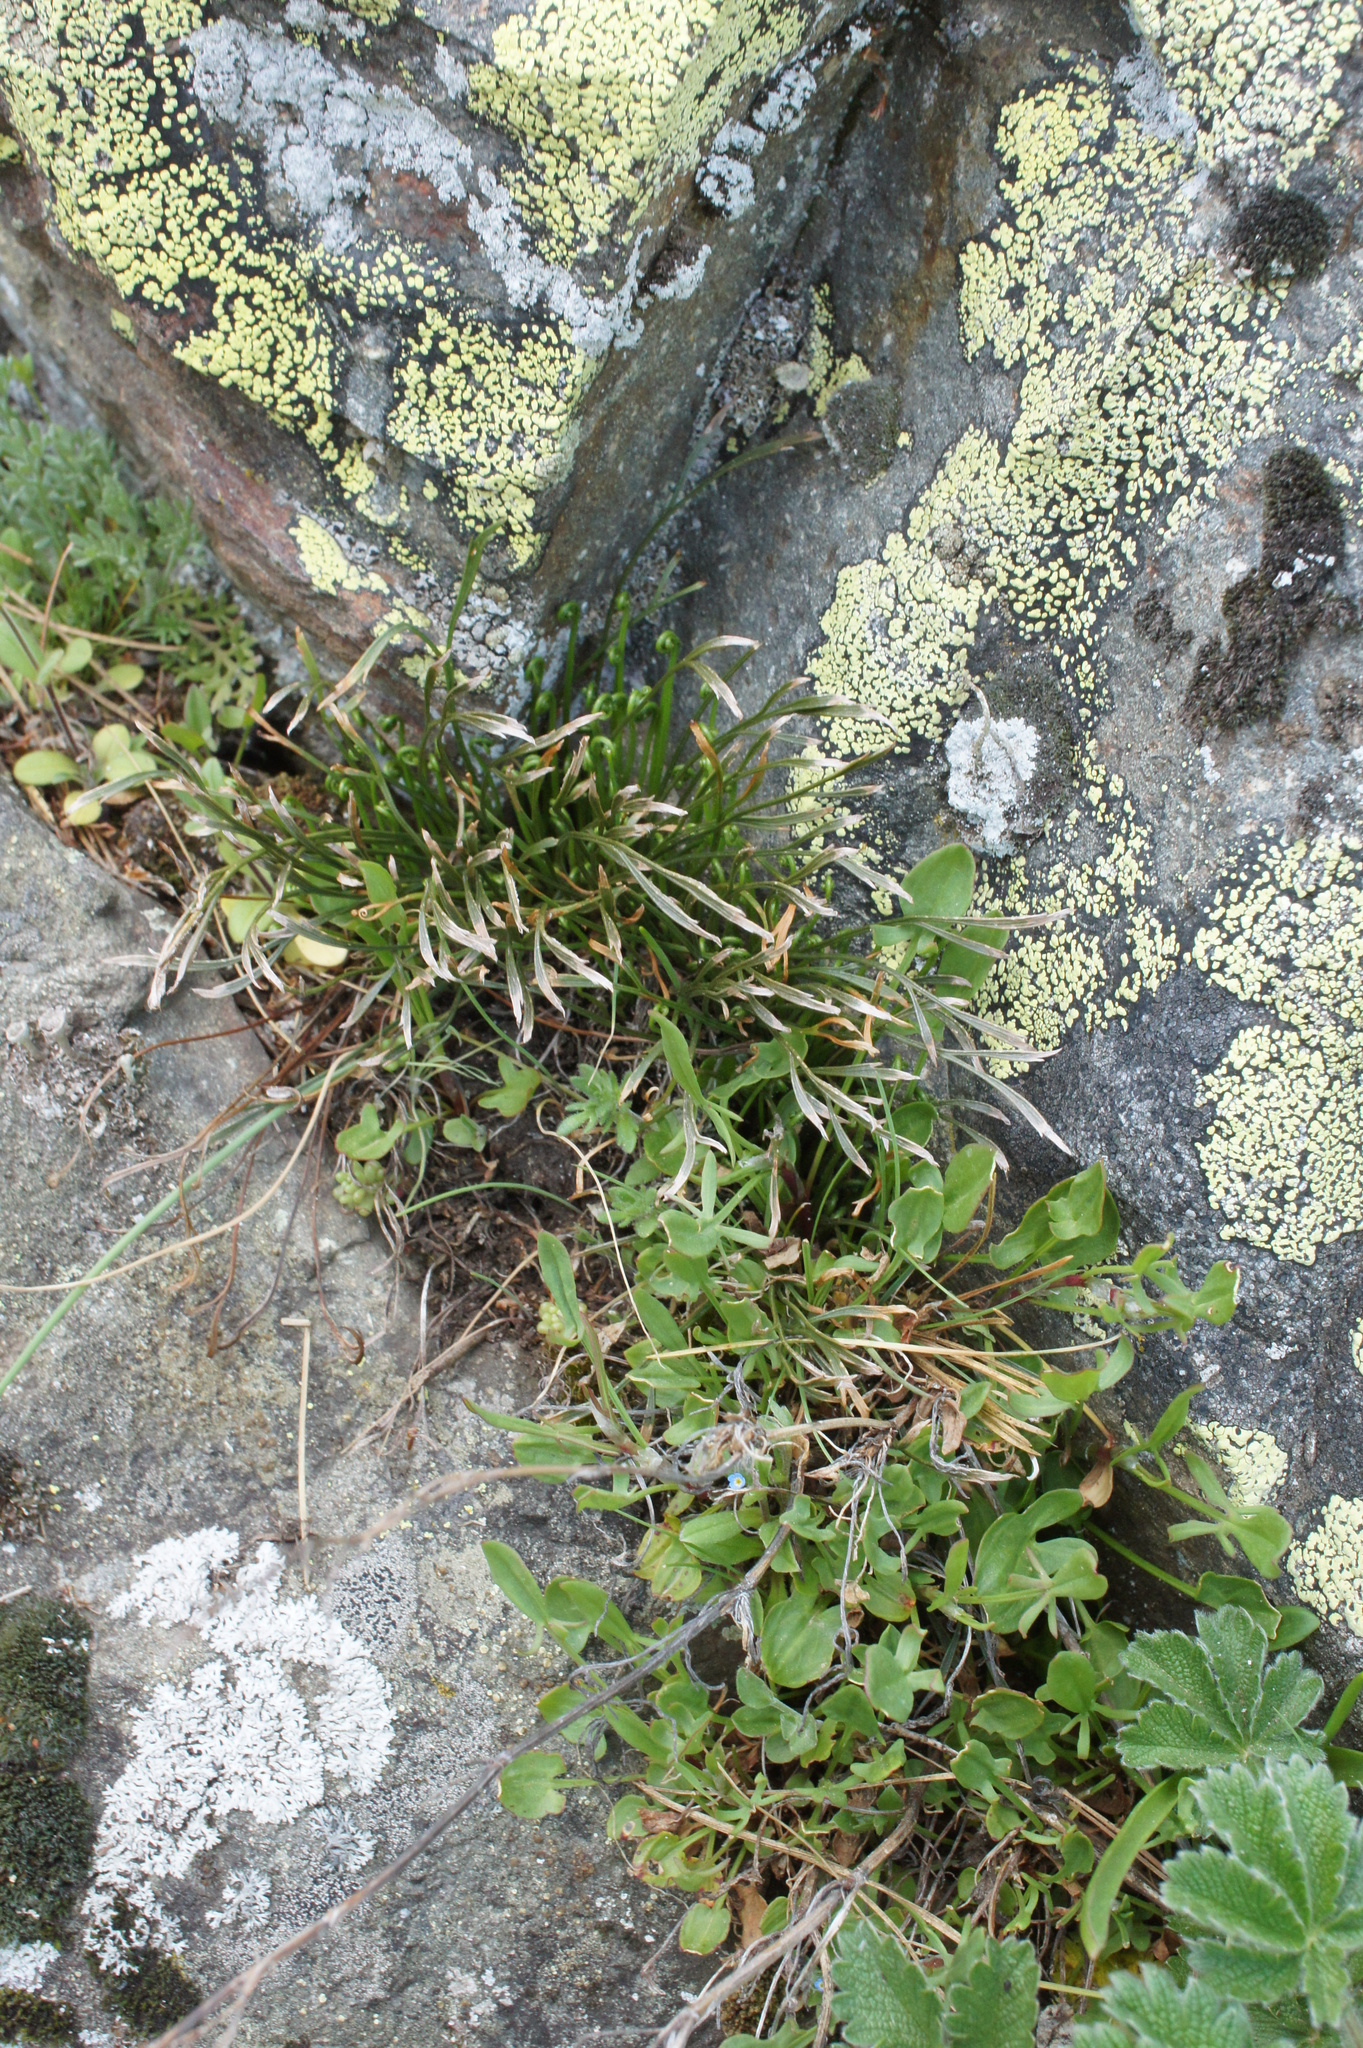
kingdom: Plantae
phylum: Tracheophyta
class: Polypodiopsida
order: Polypodiales
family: Aspleniaceae
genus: Asplenium
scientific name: Asplenium septentrionale
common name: Forked spleenwort
